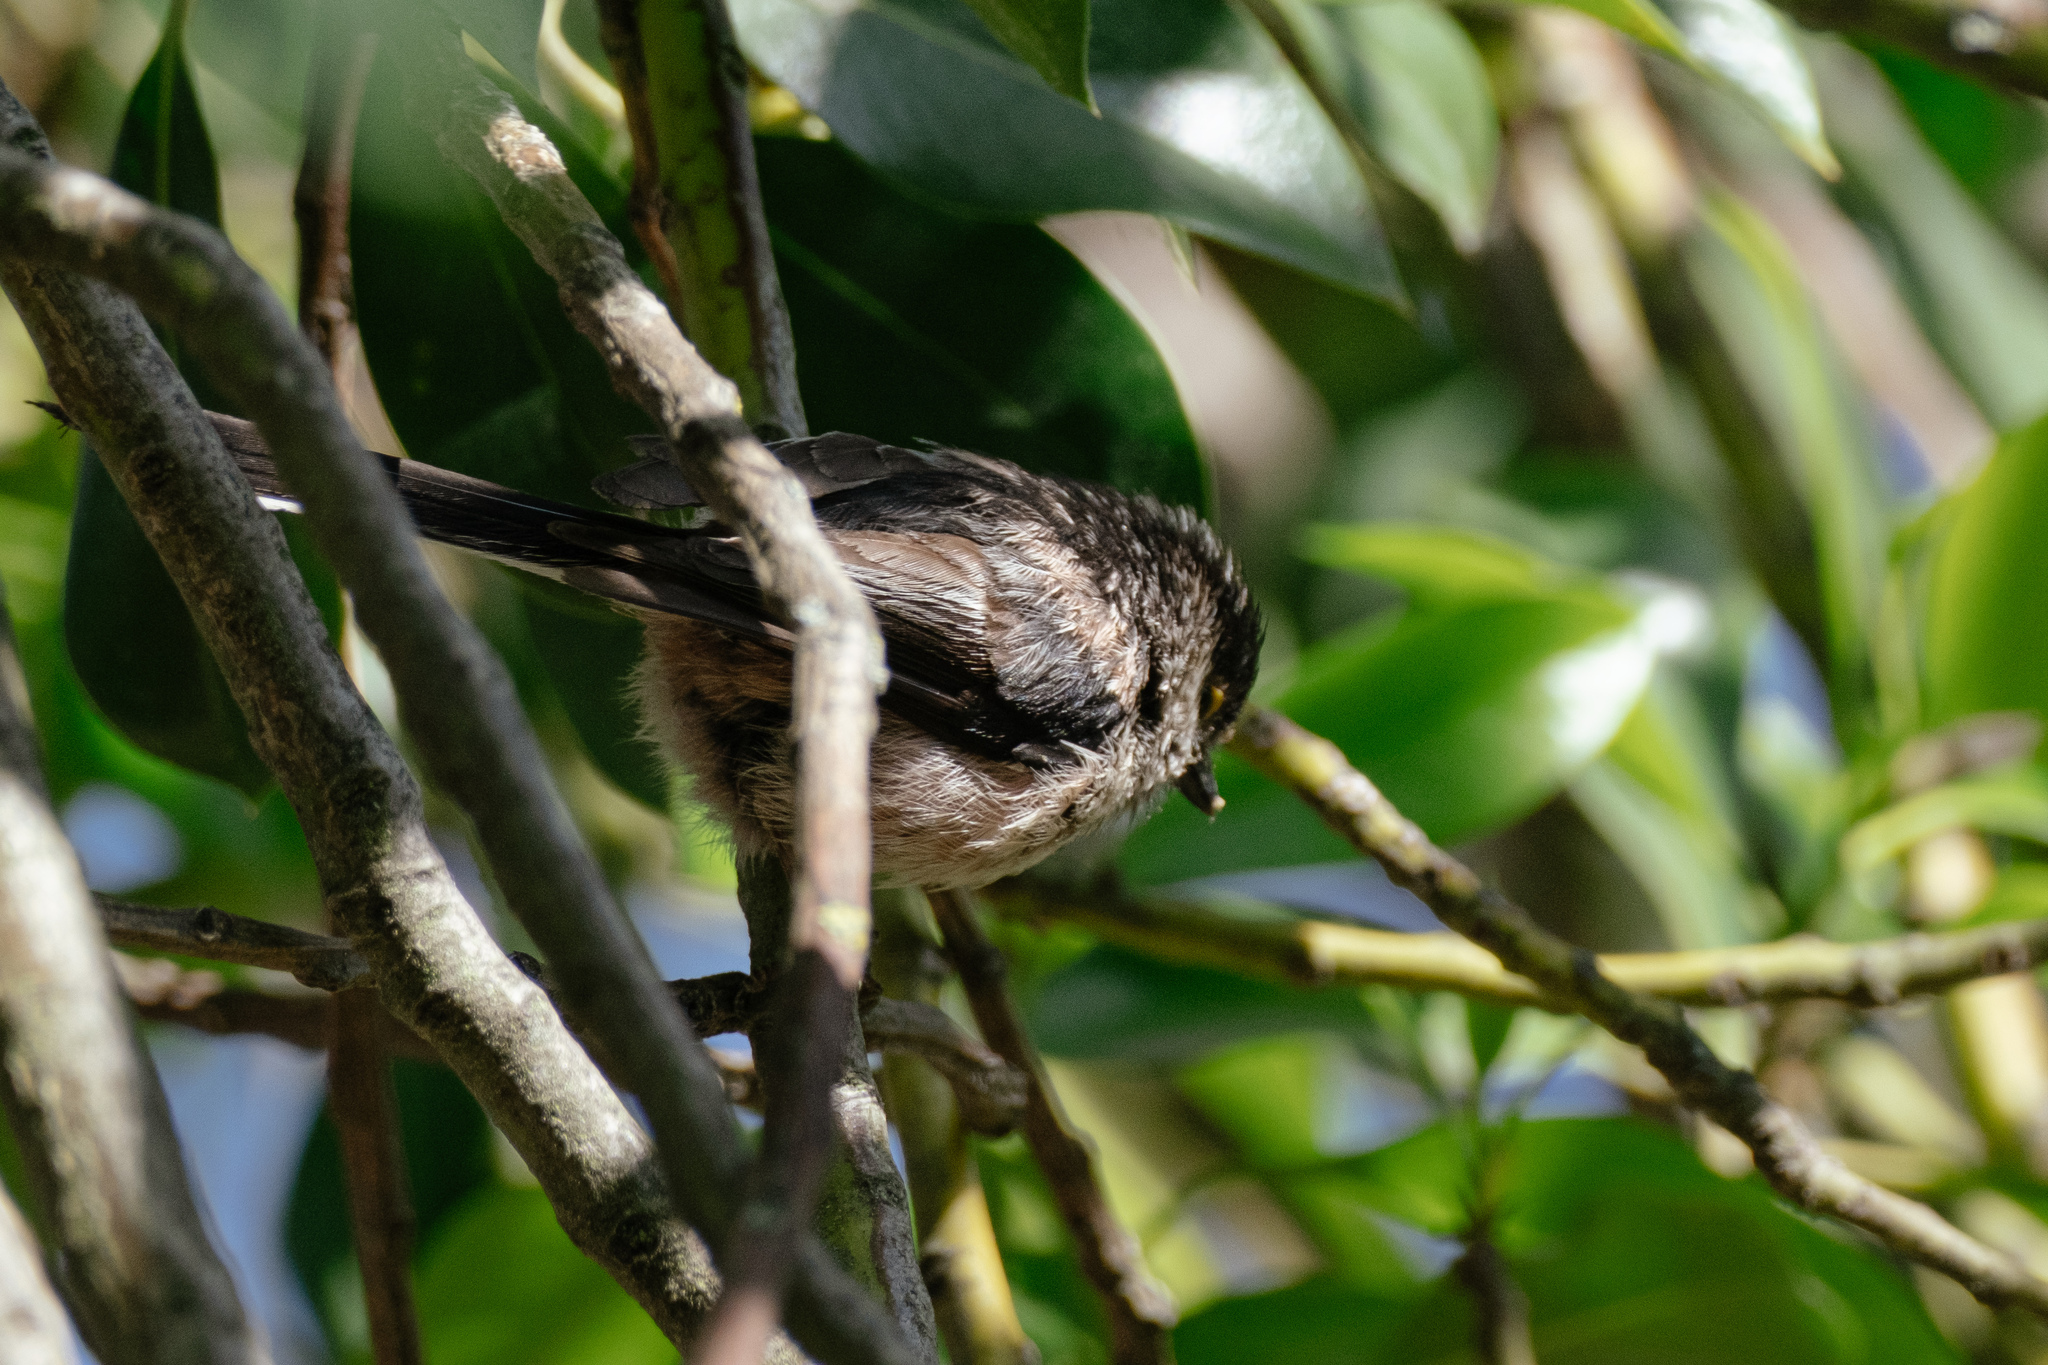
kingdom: Animalia
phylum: Chordata
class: Aves
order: Passeriformes
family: Aegithalidae
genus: Aegithalos
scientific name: Aegithalos caudatus
